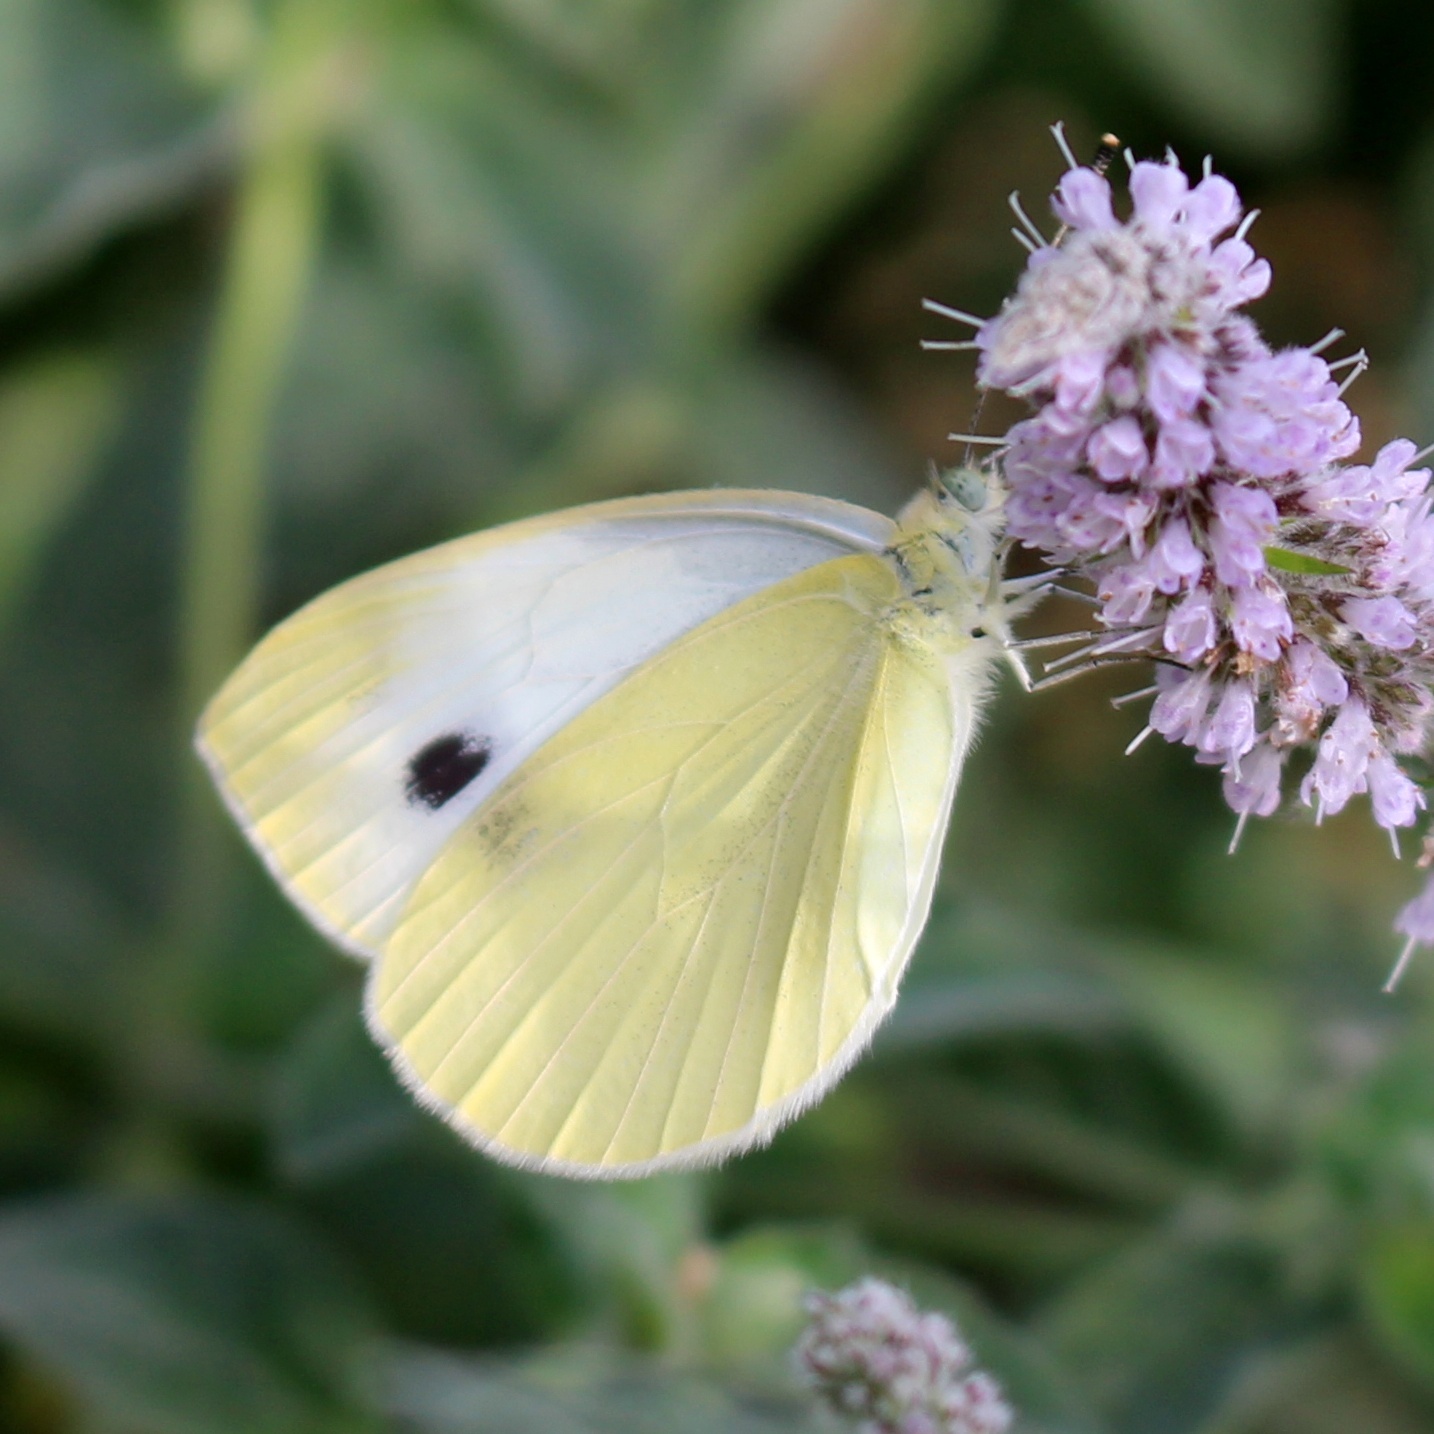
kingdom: Animalia
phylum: Arthropoda
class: Insecta
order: Lepidoptera
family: Pieridae
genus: Pieris
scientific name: Pieris rapae
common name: Small white
